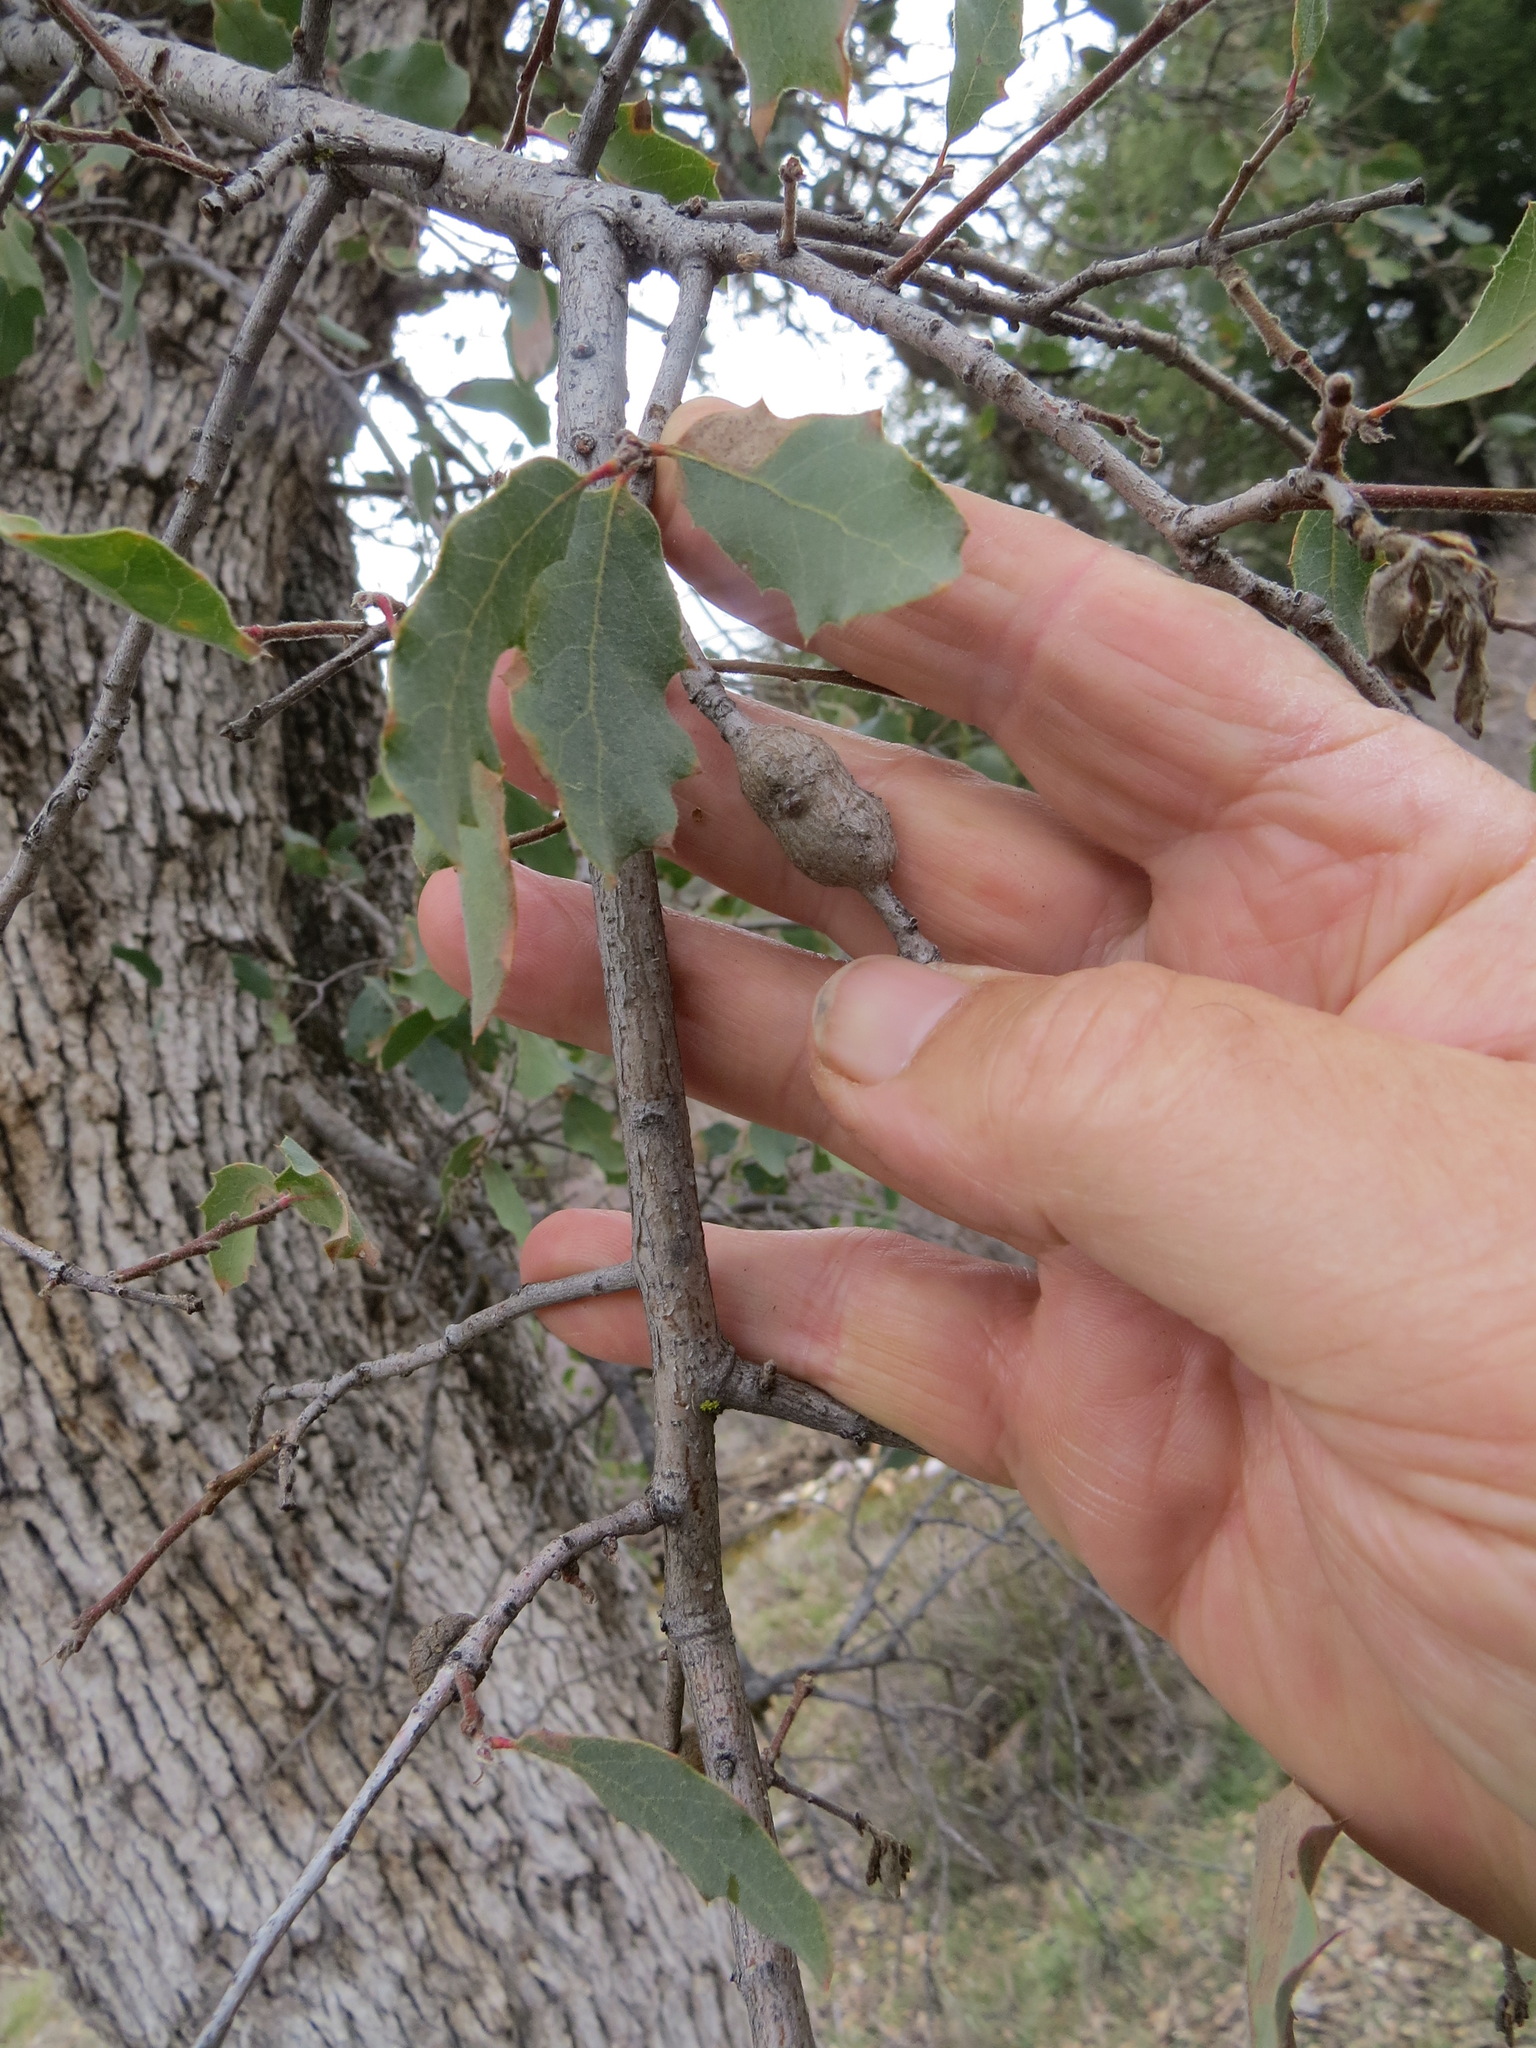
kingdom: Animalia
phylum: Arthropoda
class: Insecta
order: Hymenoptera
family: Cynipidae
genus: Andricus
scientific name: Andricus
